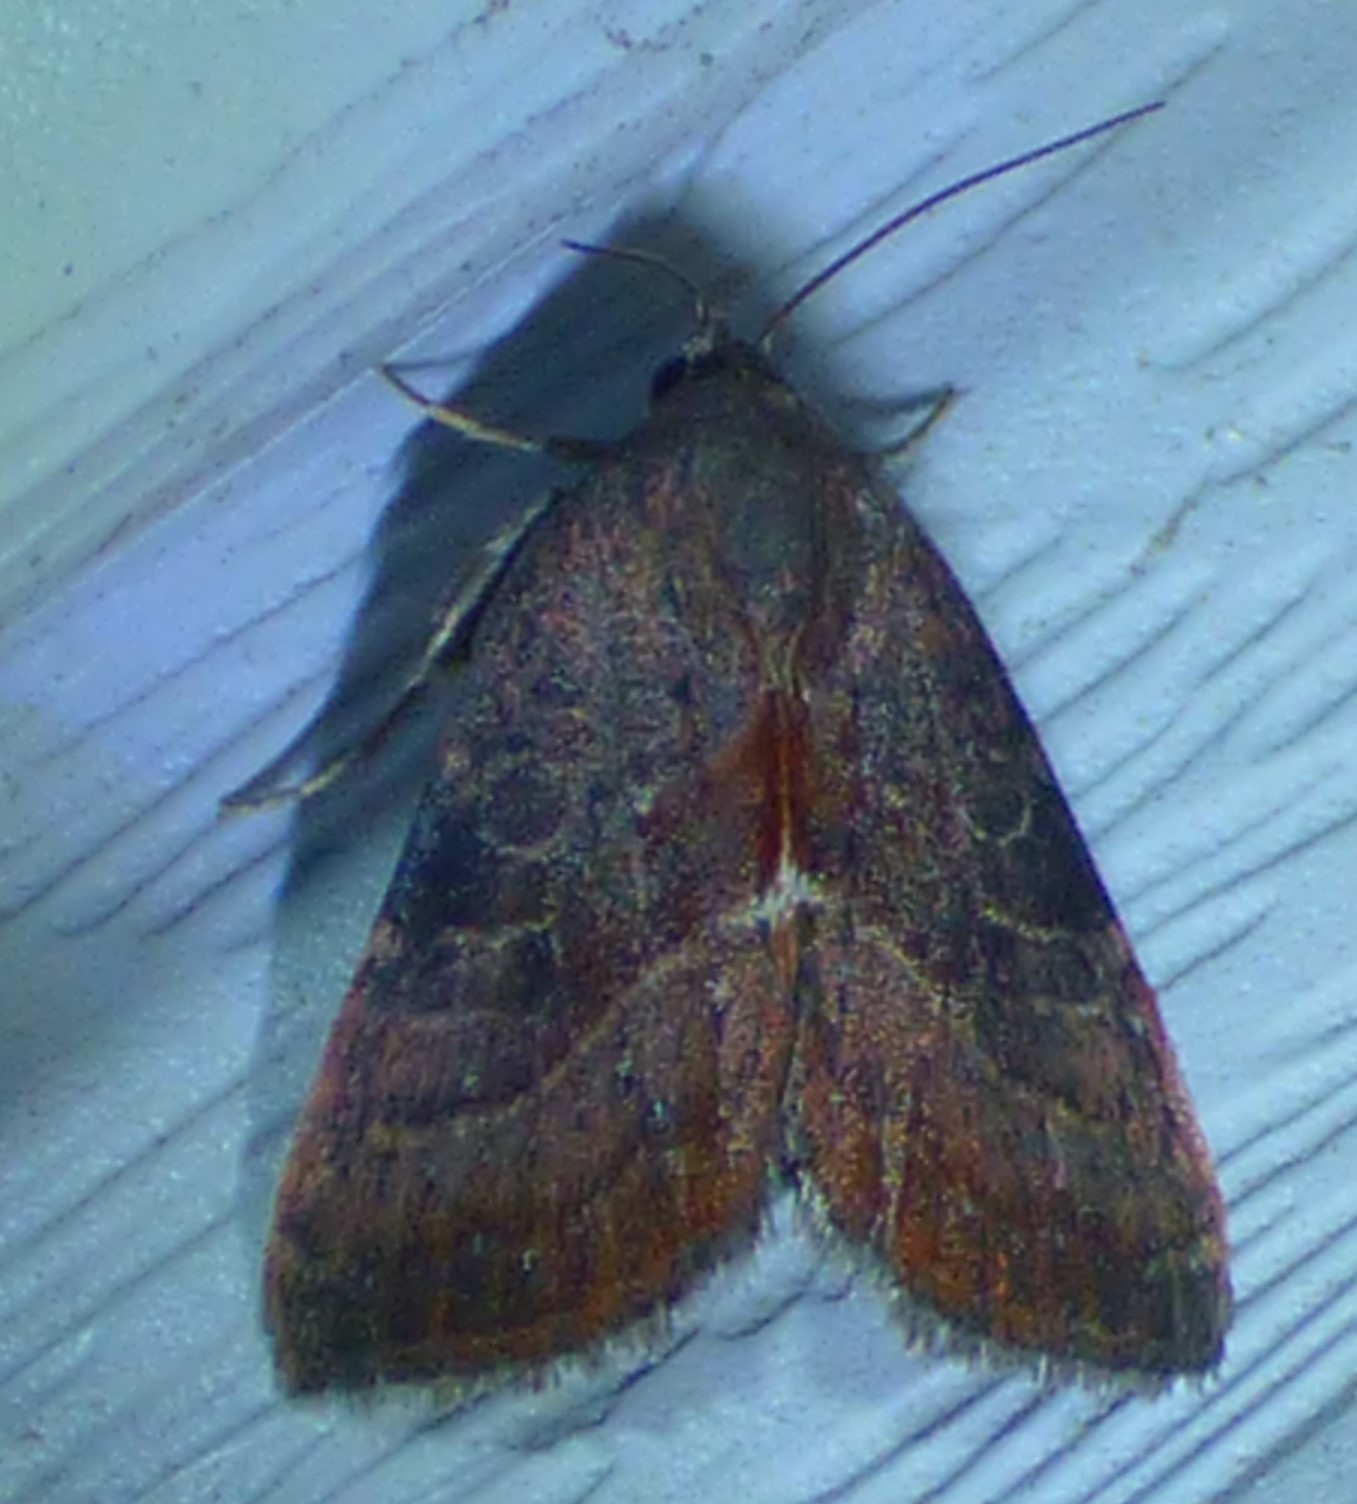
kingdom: Animalia
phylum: Arthropoda
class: Insecta
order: Lepidoptera
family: Noctuidae
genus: Galgula
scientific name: Galgula partita
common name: Wedgeling
